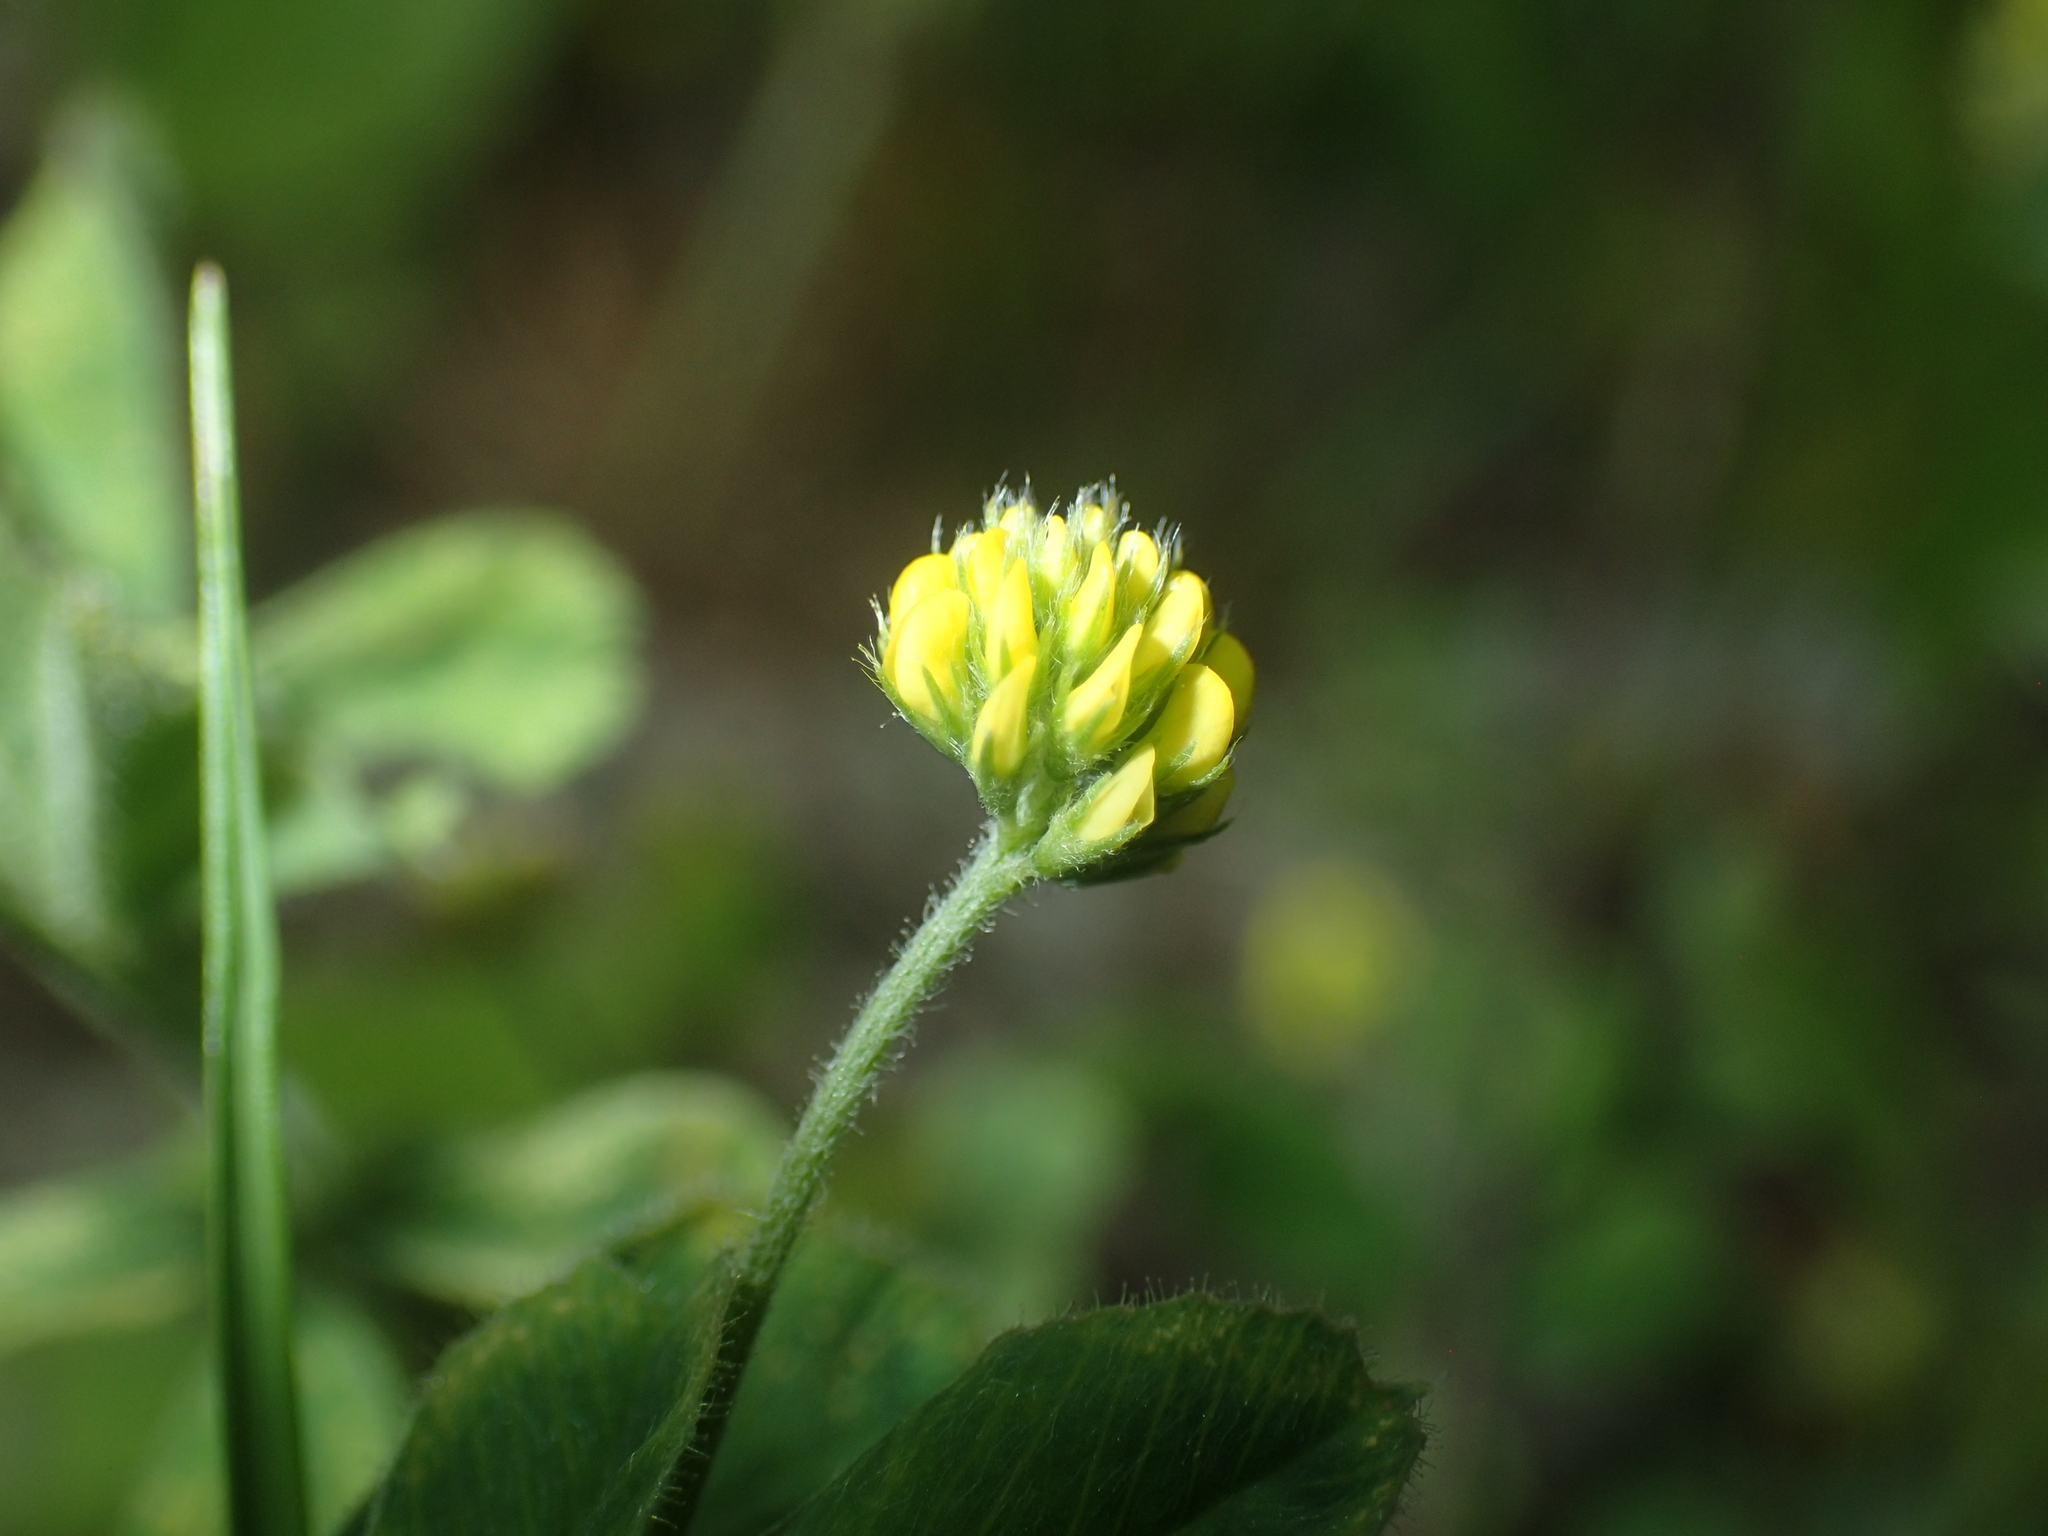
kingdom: Plantae
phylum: Tracheophyta
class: Magnoliopsida
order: Fabales
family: Fabaceae
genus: Medicago
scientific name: Medicago lupulina
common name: Black medick
